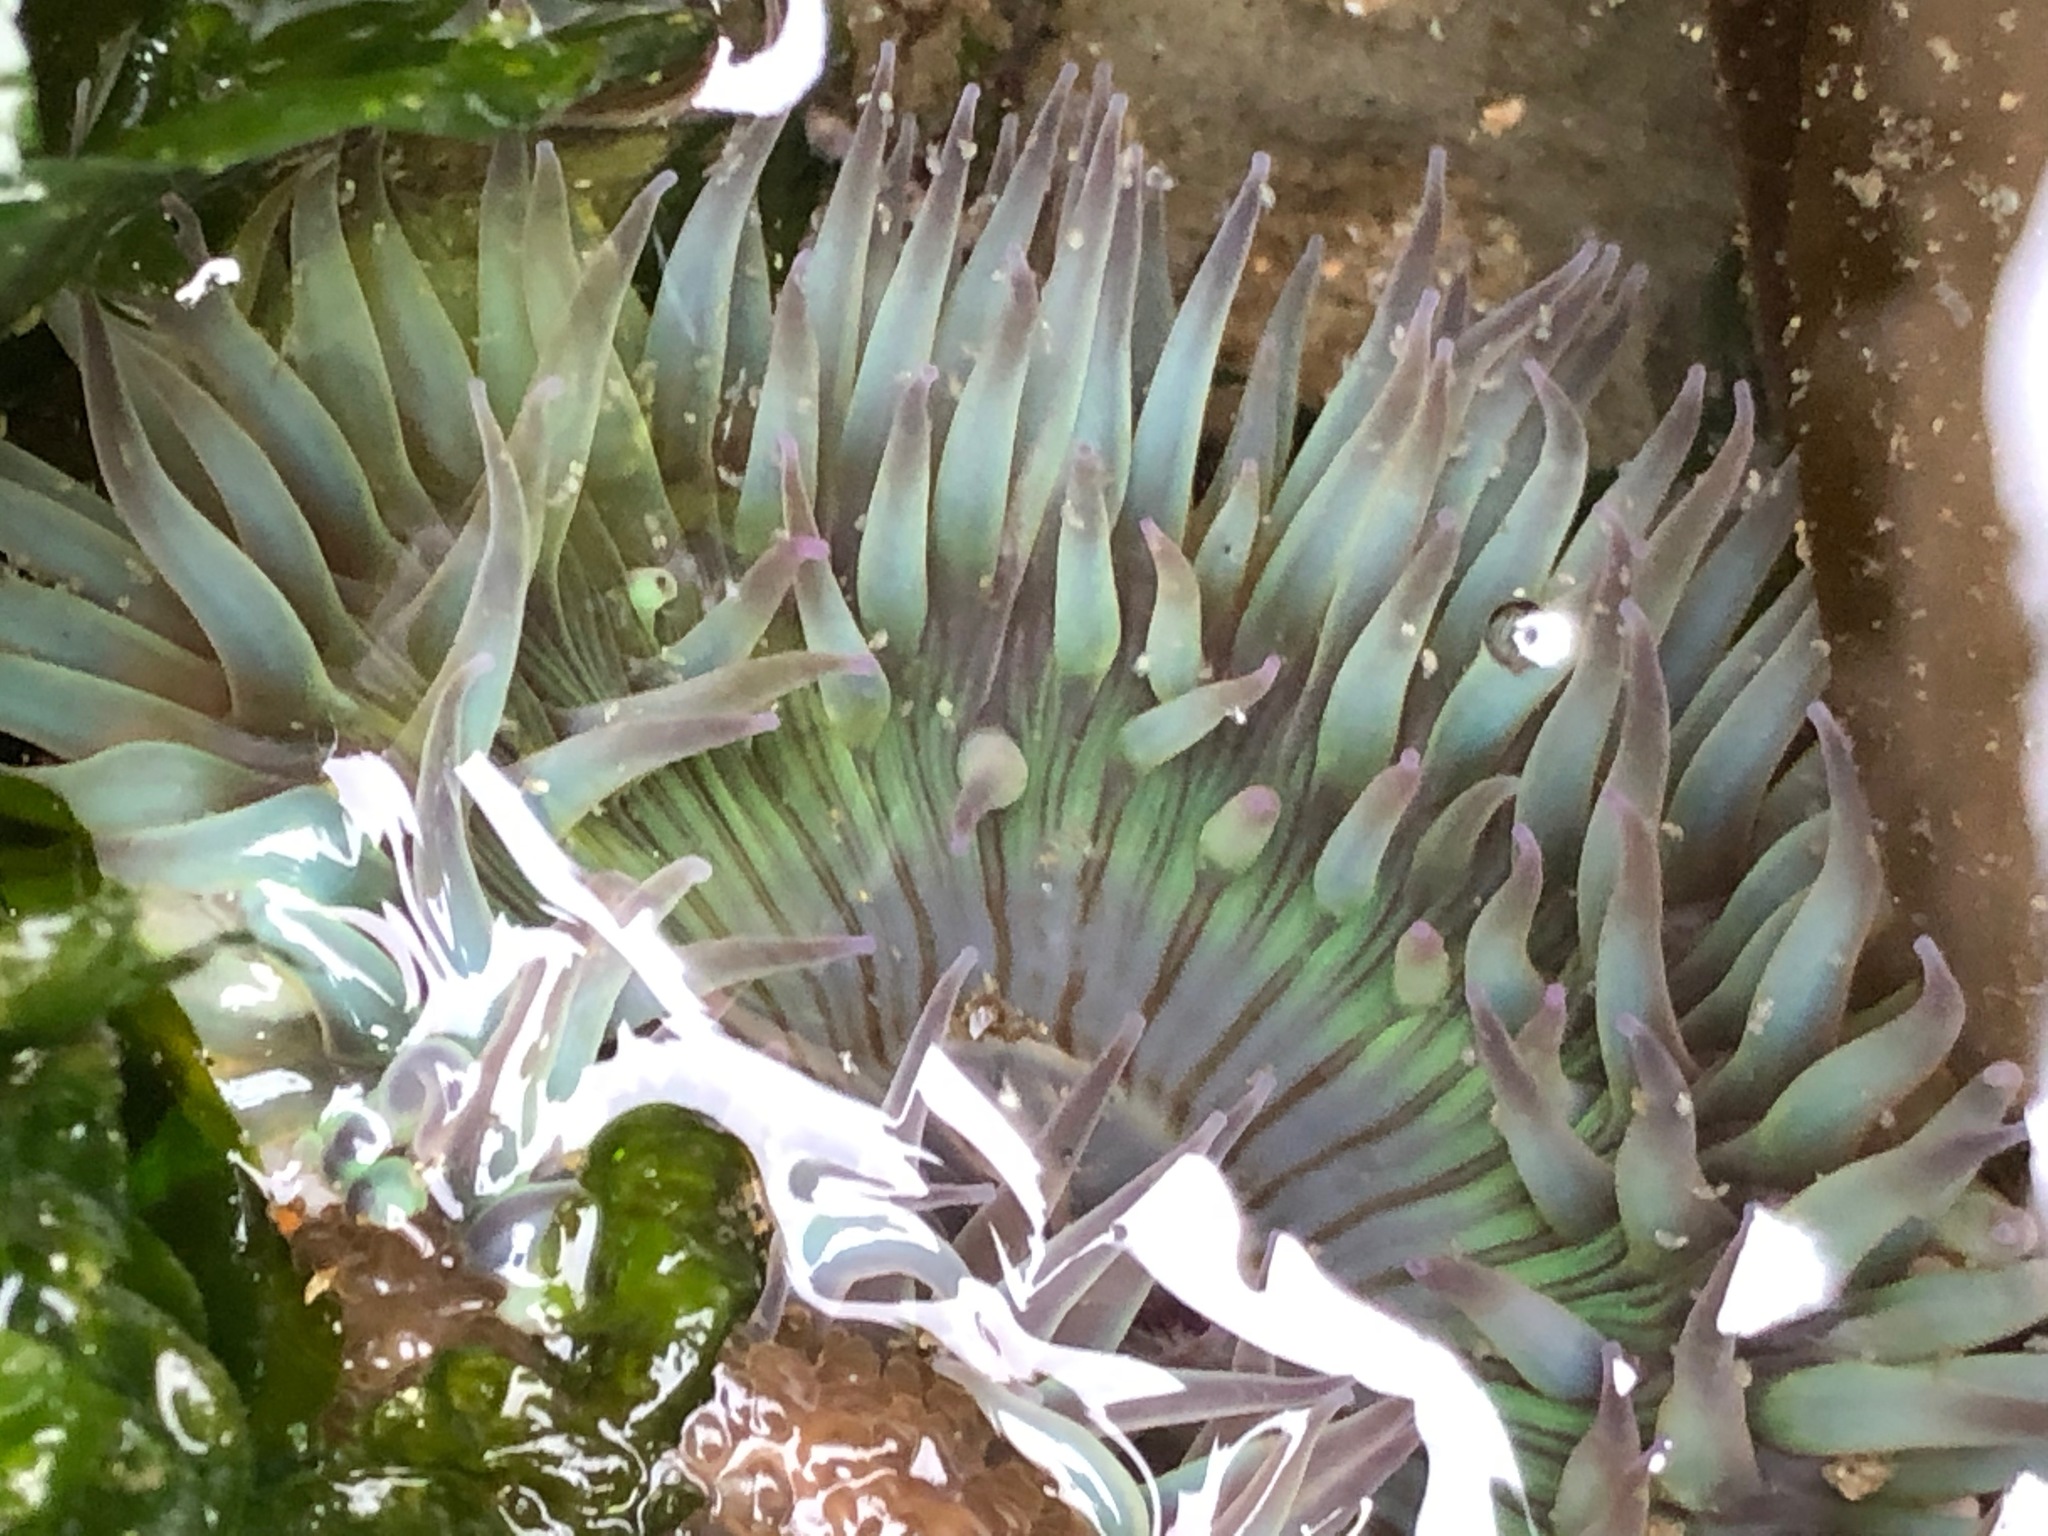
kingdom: Animalia
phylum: Cnidaria
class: Anthozoa
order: Actiniaria
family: Actiniidae
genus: Anthopleura
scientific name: Anthopleura sola
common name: Sun anemone
